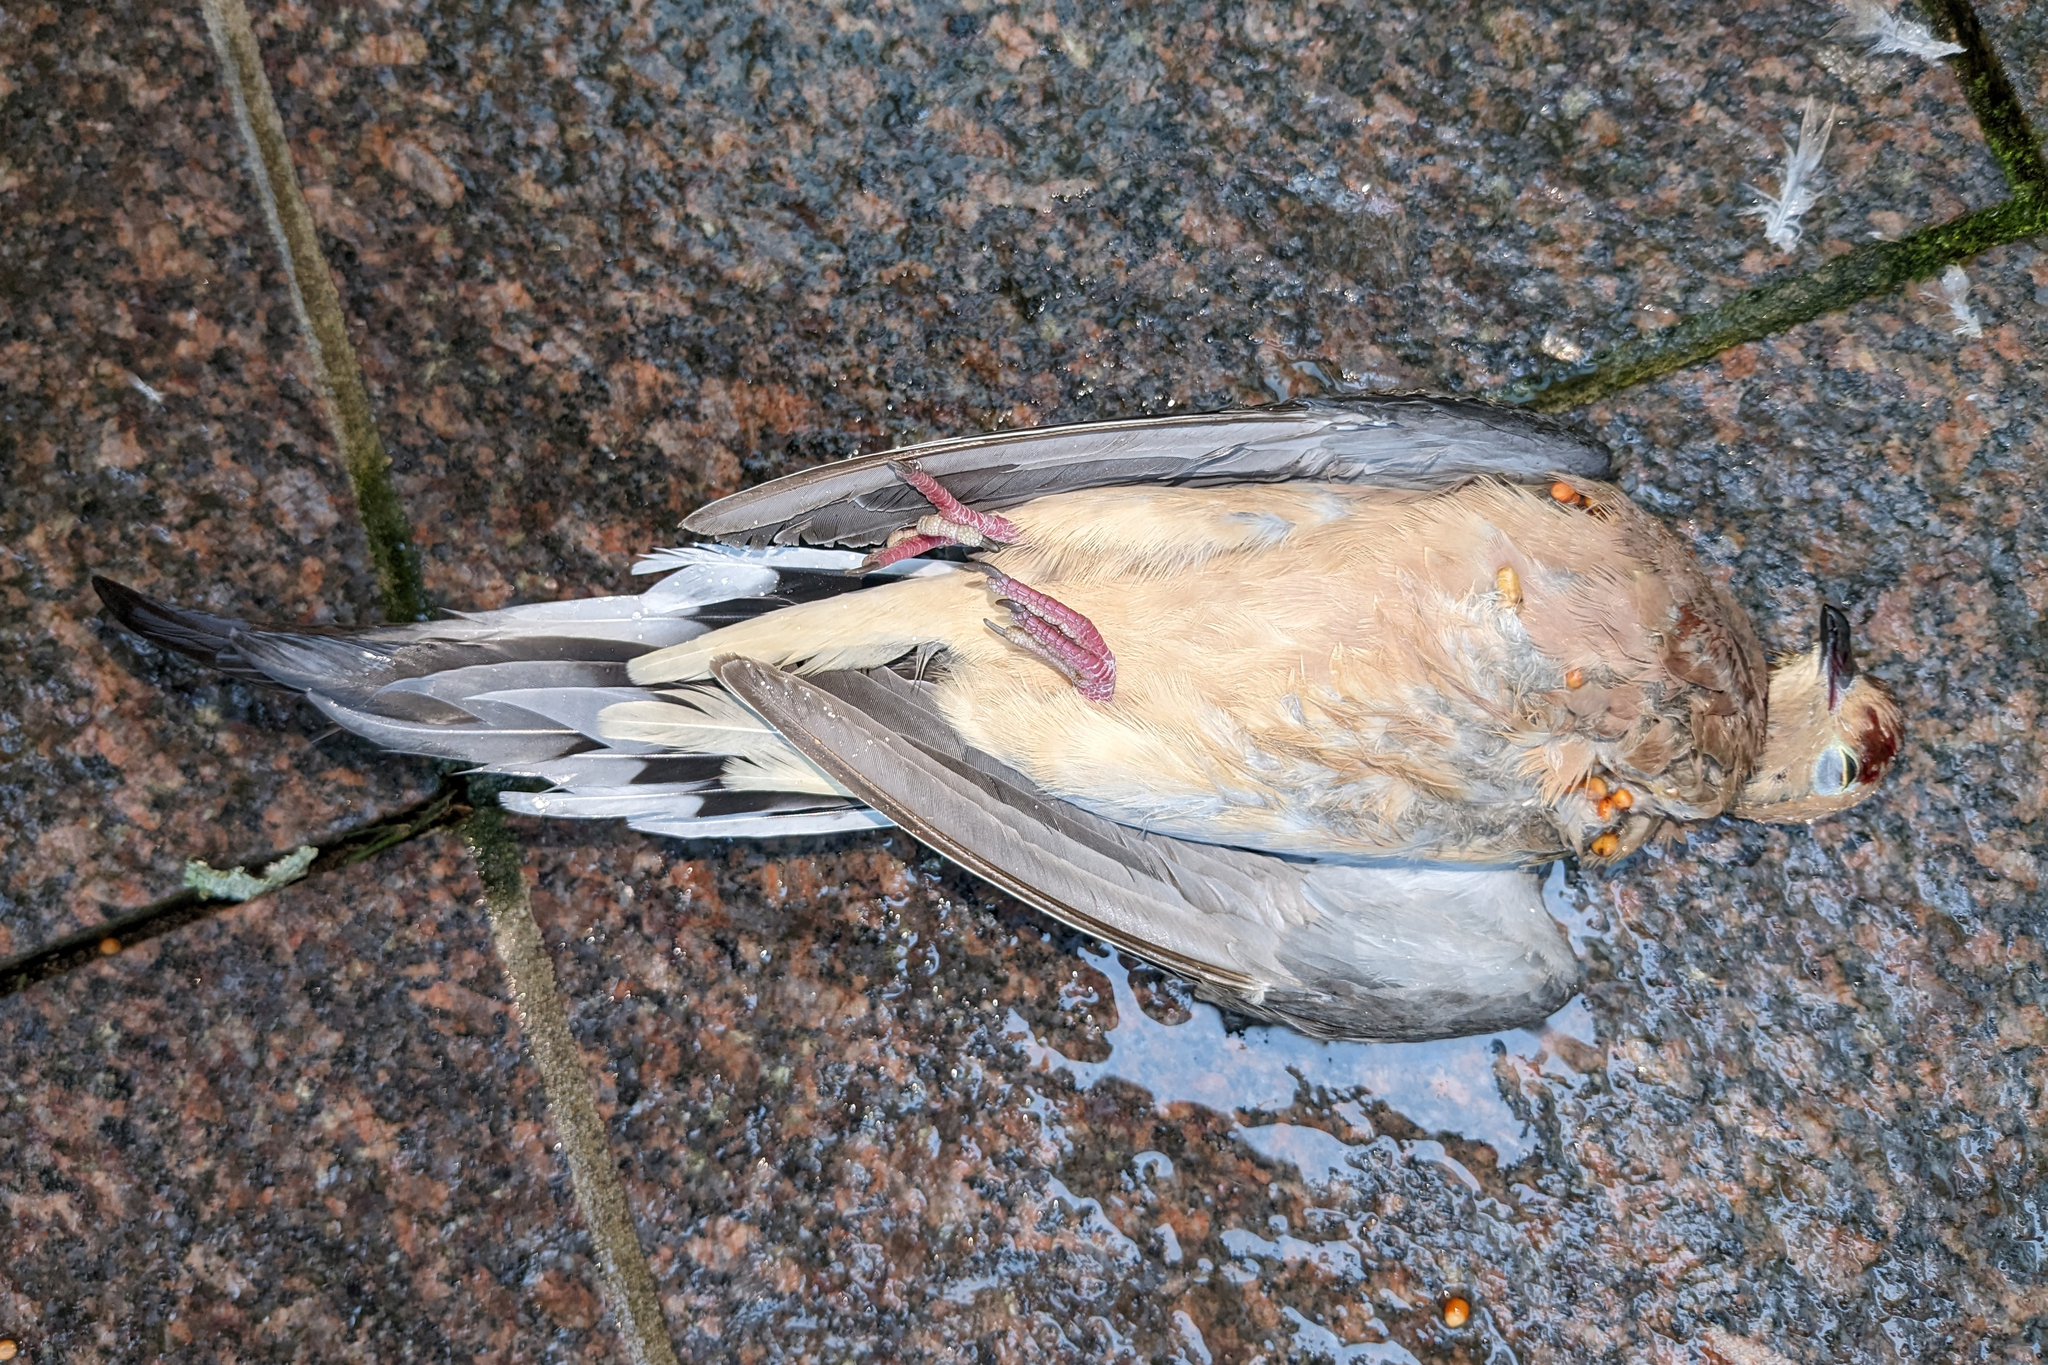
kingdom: Animalia
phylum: Chordata
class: Aves
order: Columbiformes
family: Columbidae
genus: Zenaida
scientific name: Zenaida macroura
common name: Mourning dove
